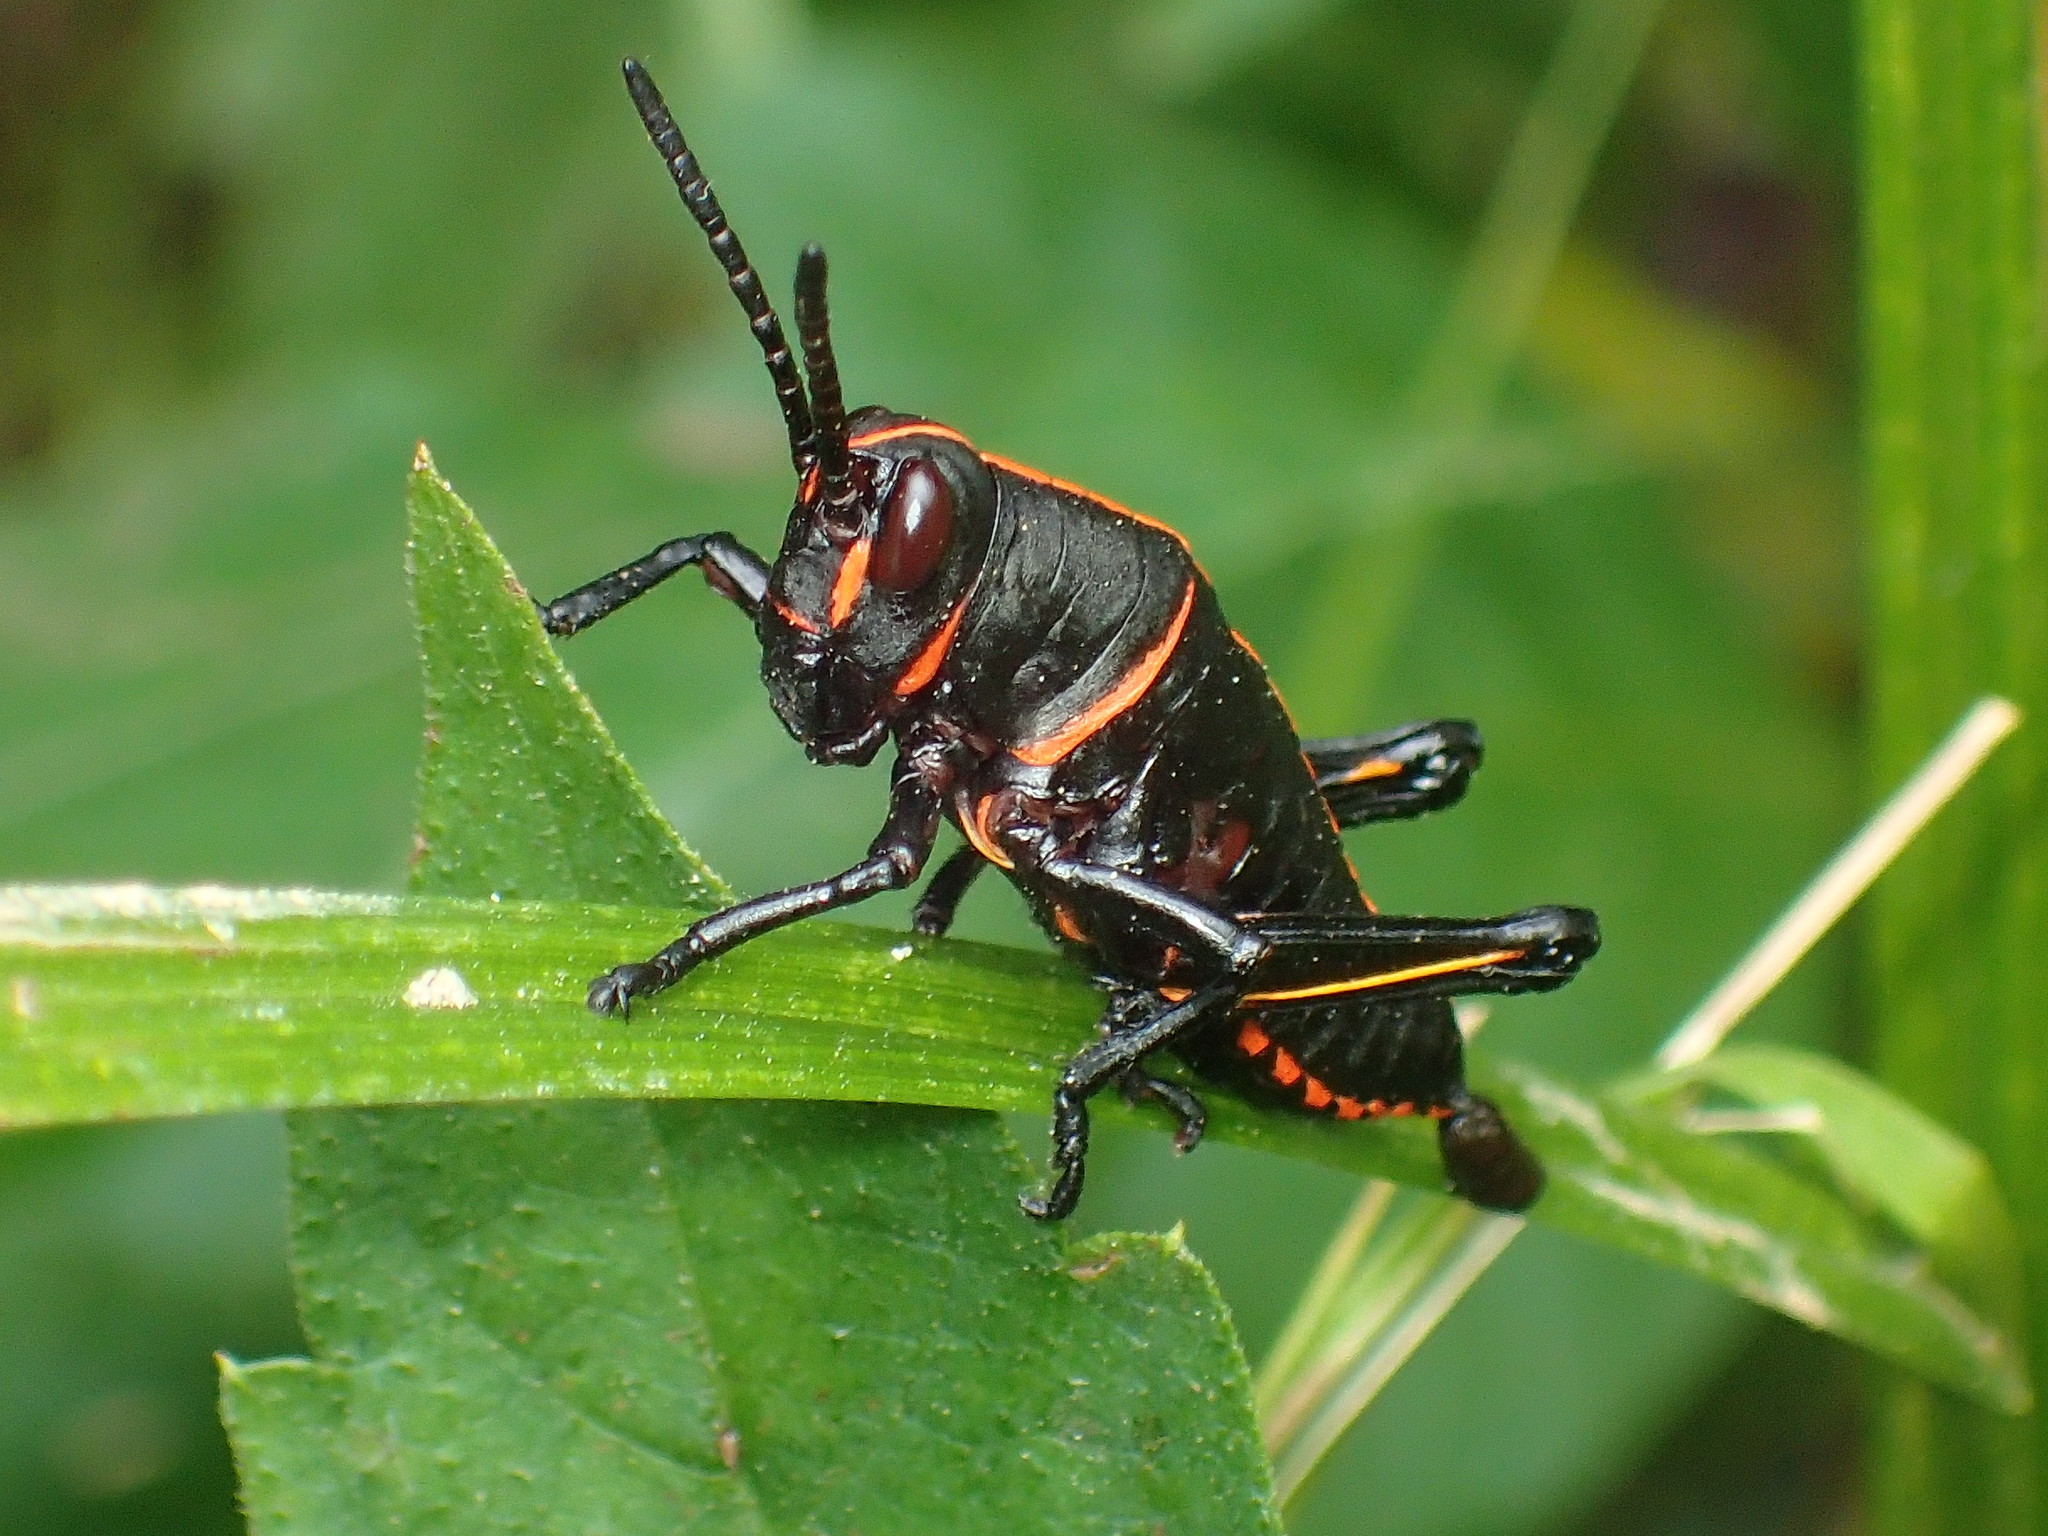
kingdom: Animalia
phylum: Arthropoda
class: Insecta
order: Orthoptera
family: Romaleidae
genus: Romalea
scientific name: Romalea microptera
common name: Eastern lubber grasshopper
